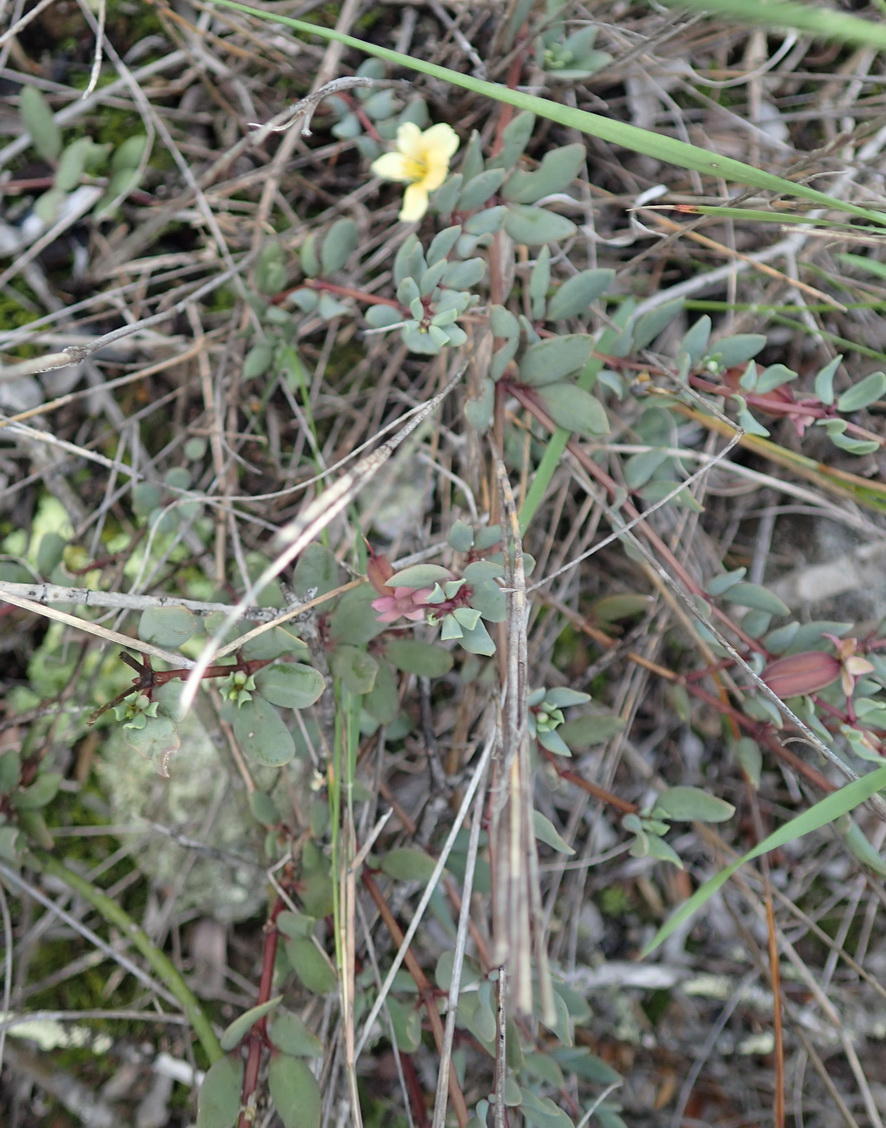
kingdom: Plantae
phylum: Tracheophyta
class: Magnoliopsida
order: Zygophyllales
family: Zygophyllaceae
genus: Roepera
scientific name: Roepera debilis
